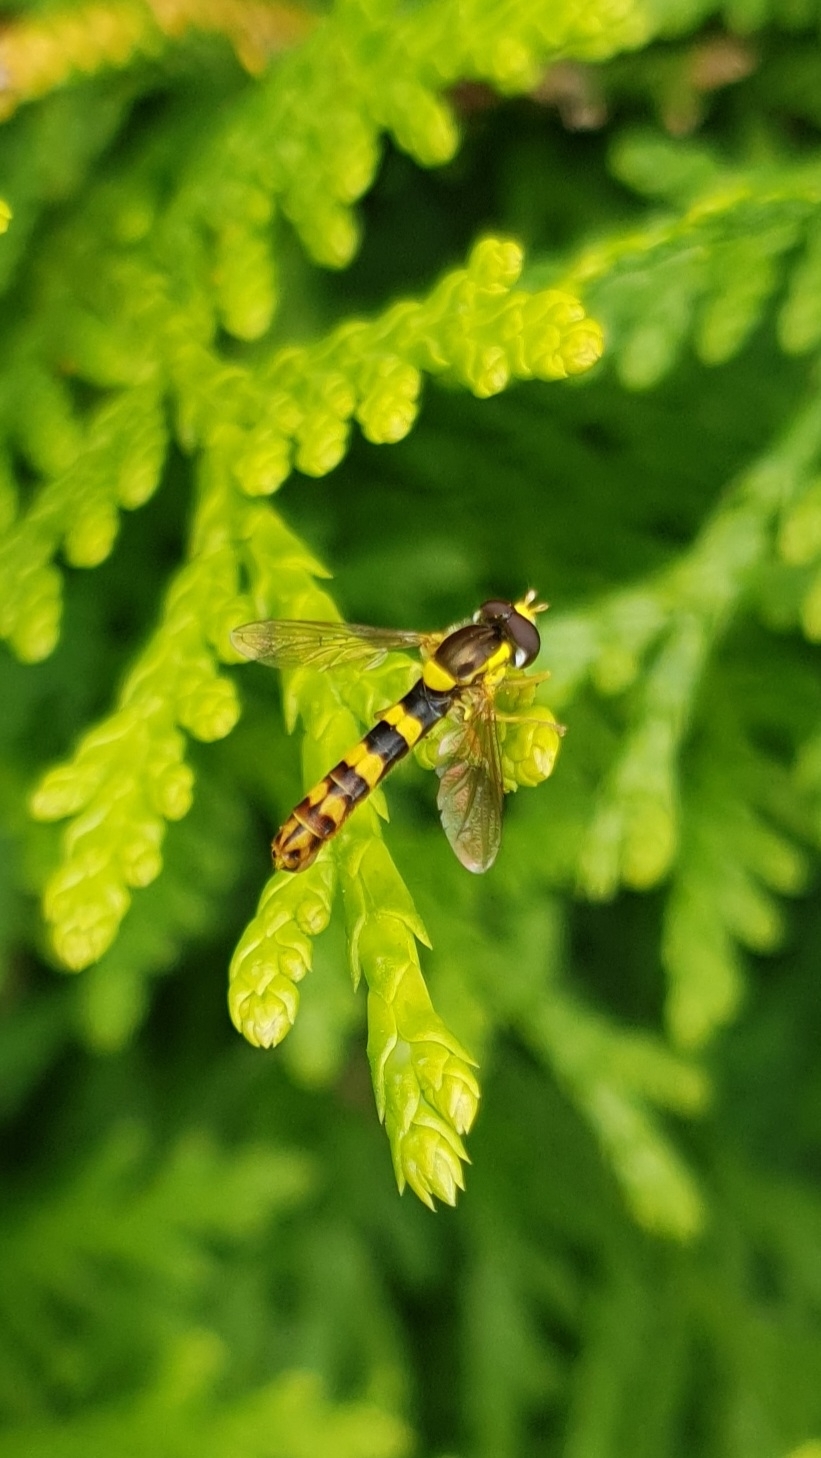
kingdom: Animalia
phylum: Arthropoda
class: Insecta
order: Diptera
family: Syrphidae
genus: Sphaerophoria
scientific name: Sphaerophoria scripta
